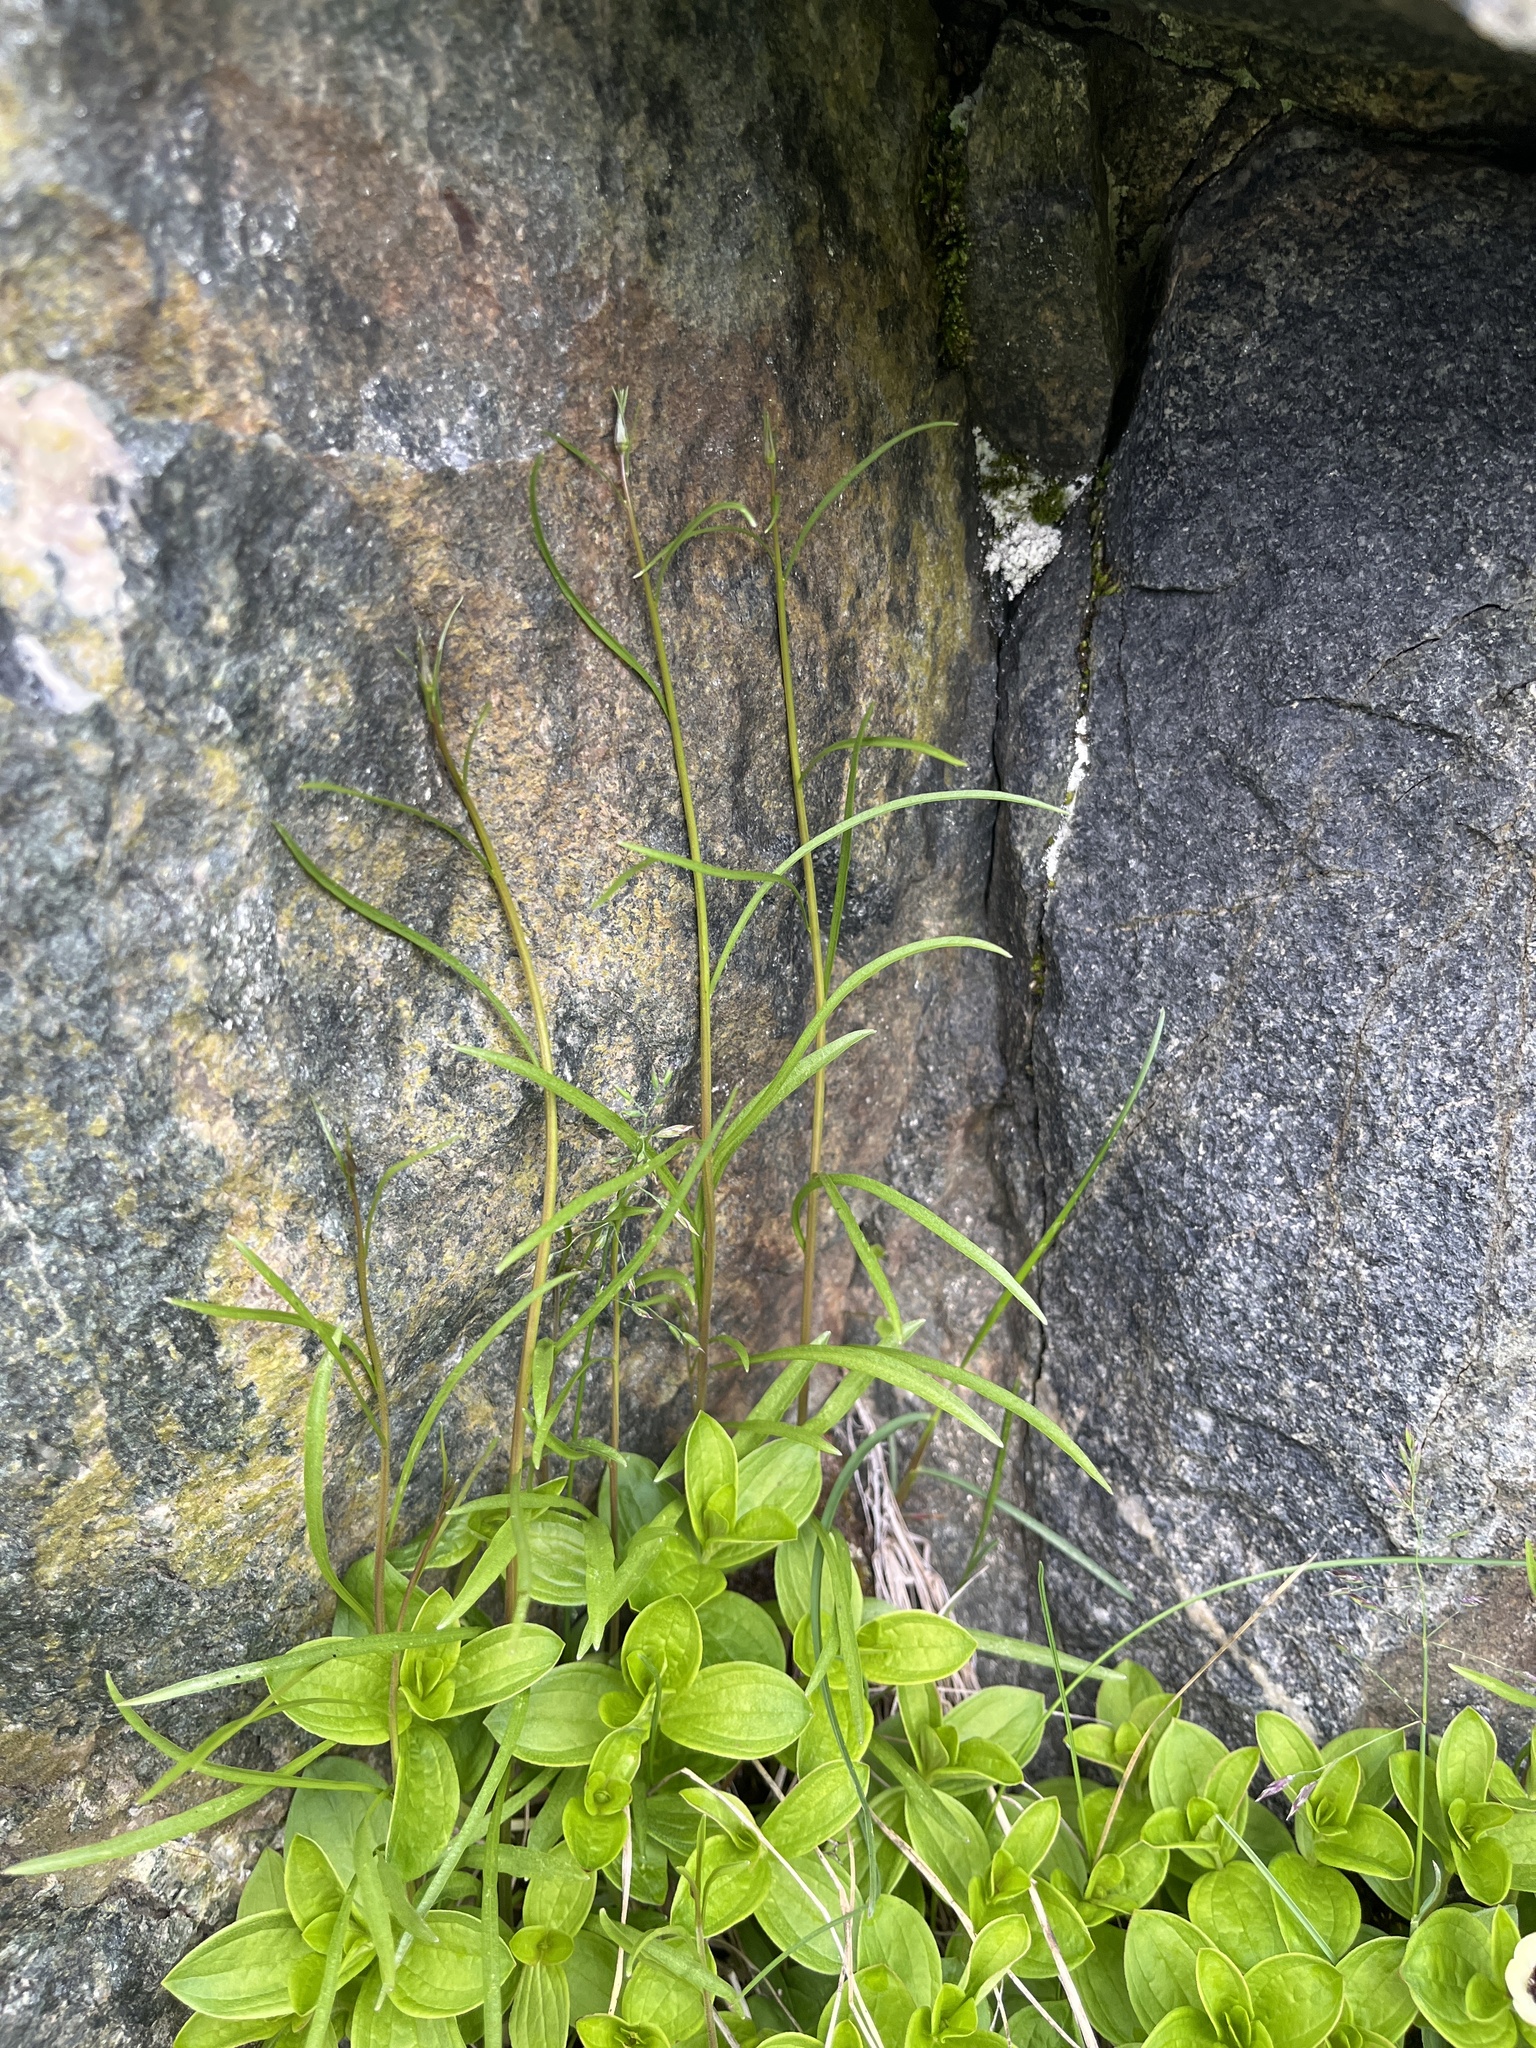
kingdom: Plantae
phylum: Tracheophyta
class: Magnoliopsida
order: Asterales
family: Campanulaceae
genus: Campanula
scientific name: Campanula giesekiana
